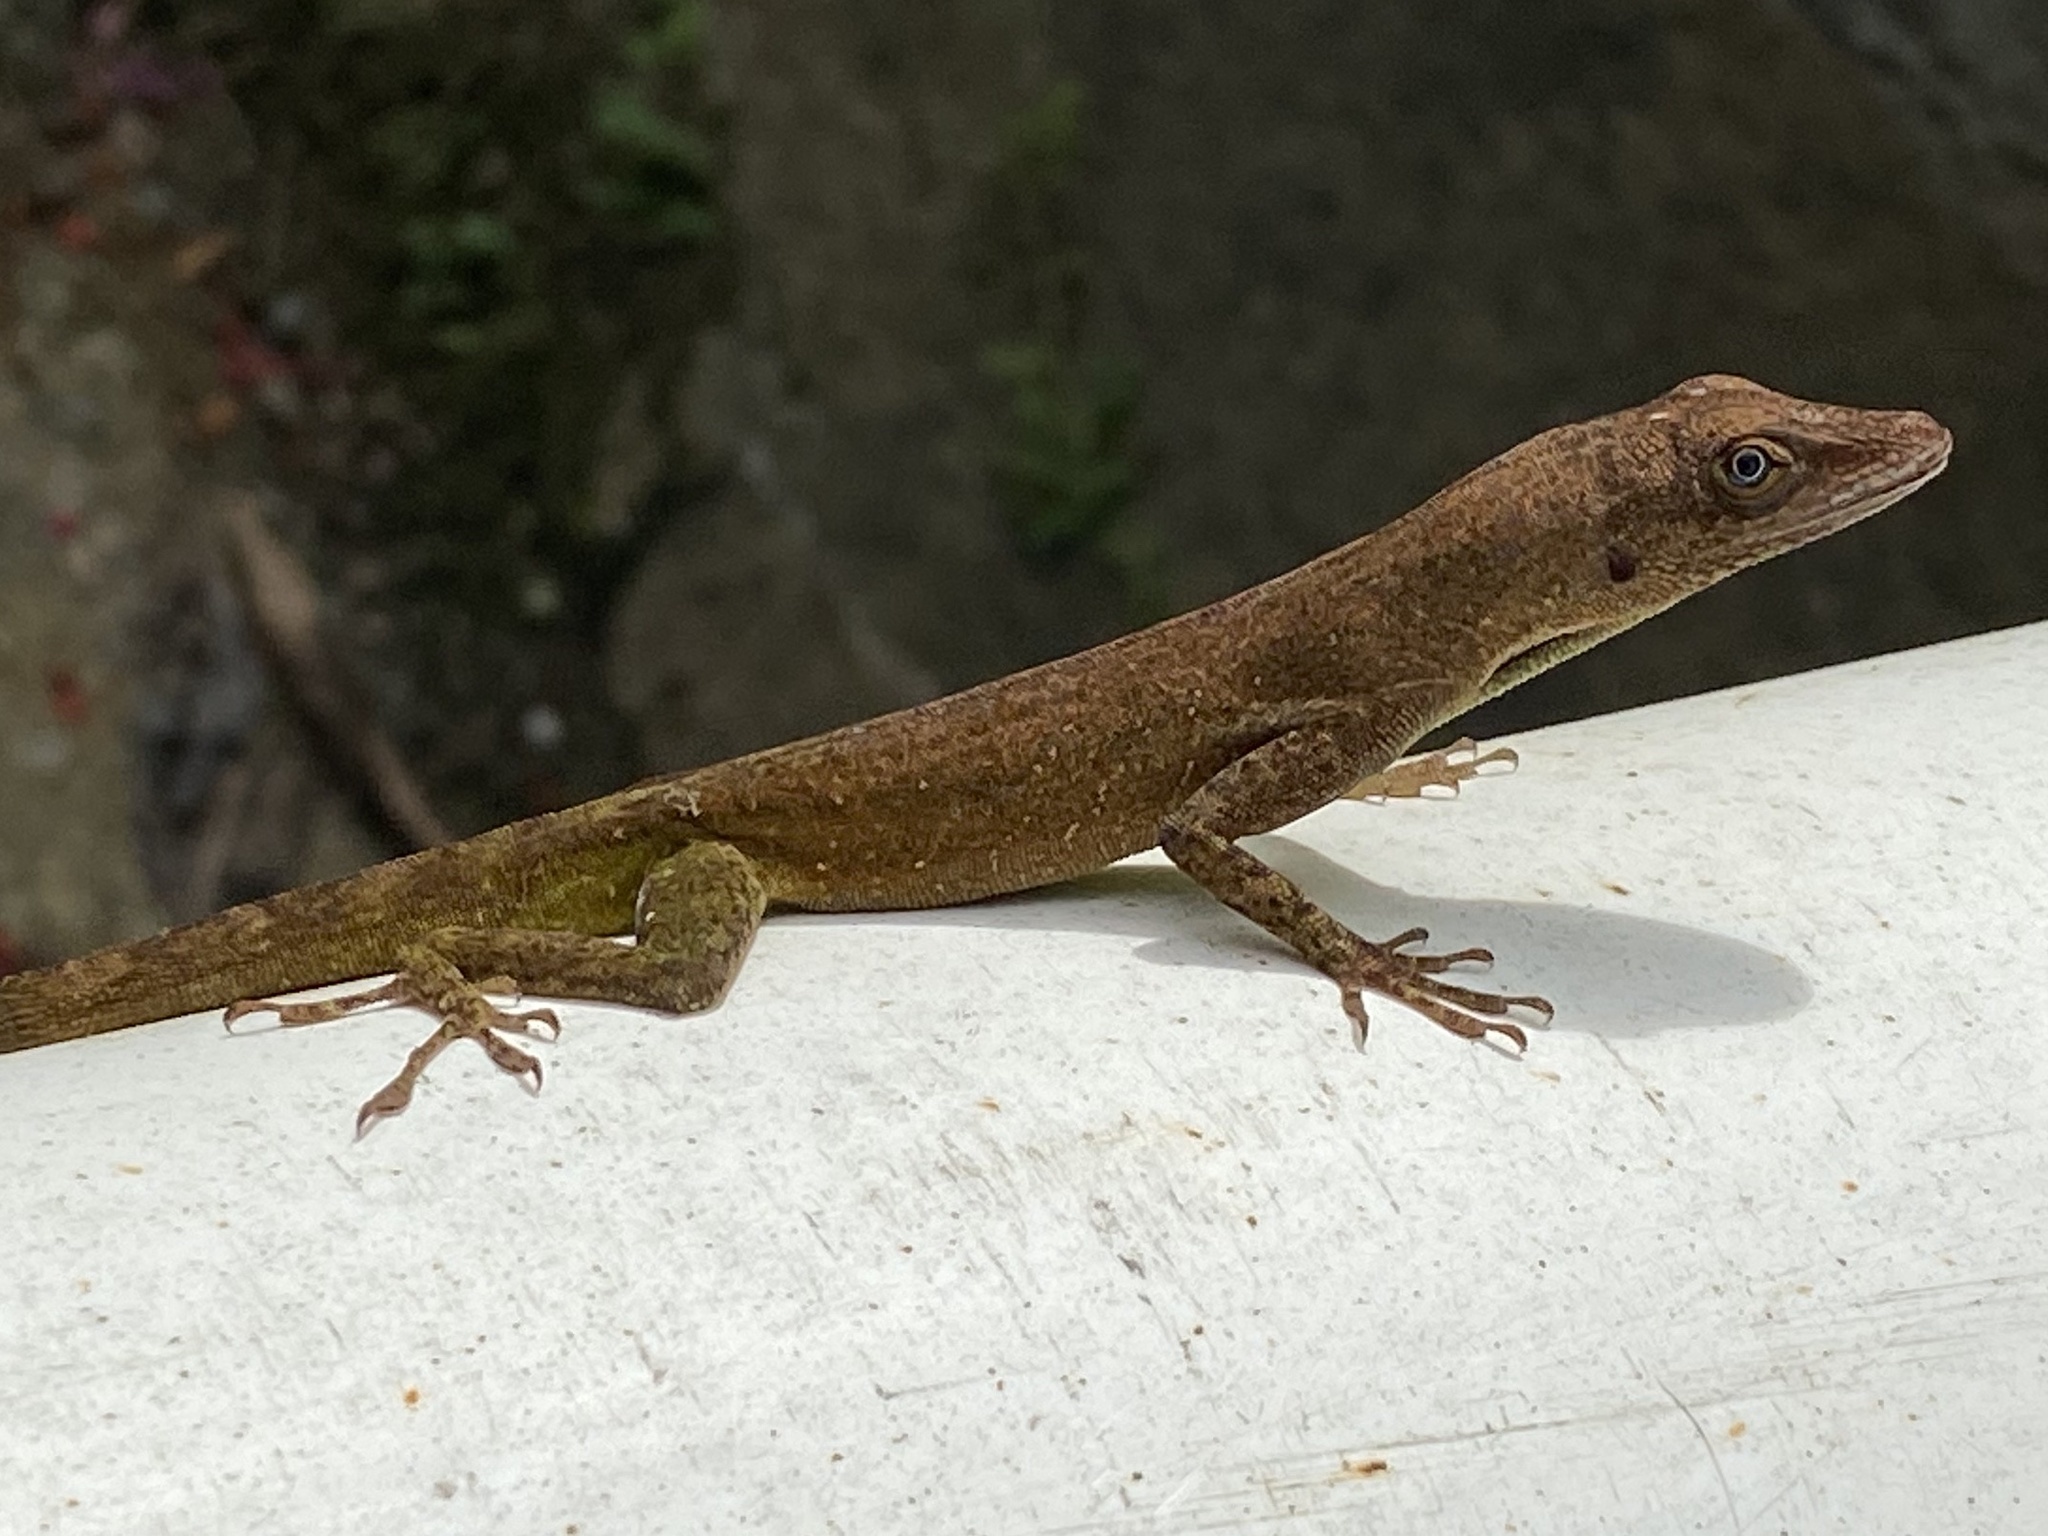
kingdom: Animalia
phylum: Chordata
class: Squamata
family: Dactyloidae
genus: Anolis
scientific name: Anolis luciae
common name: St. lucia anole
